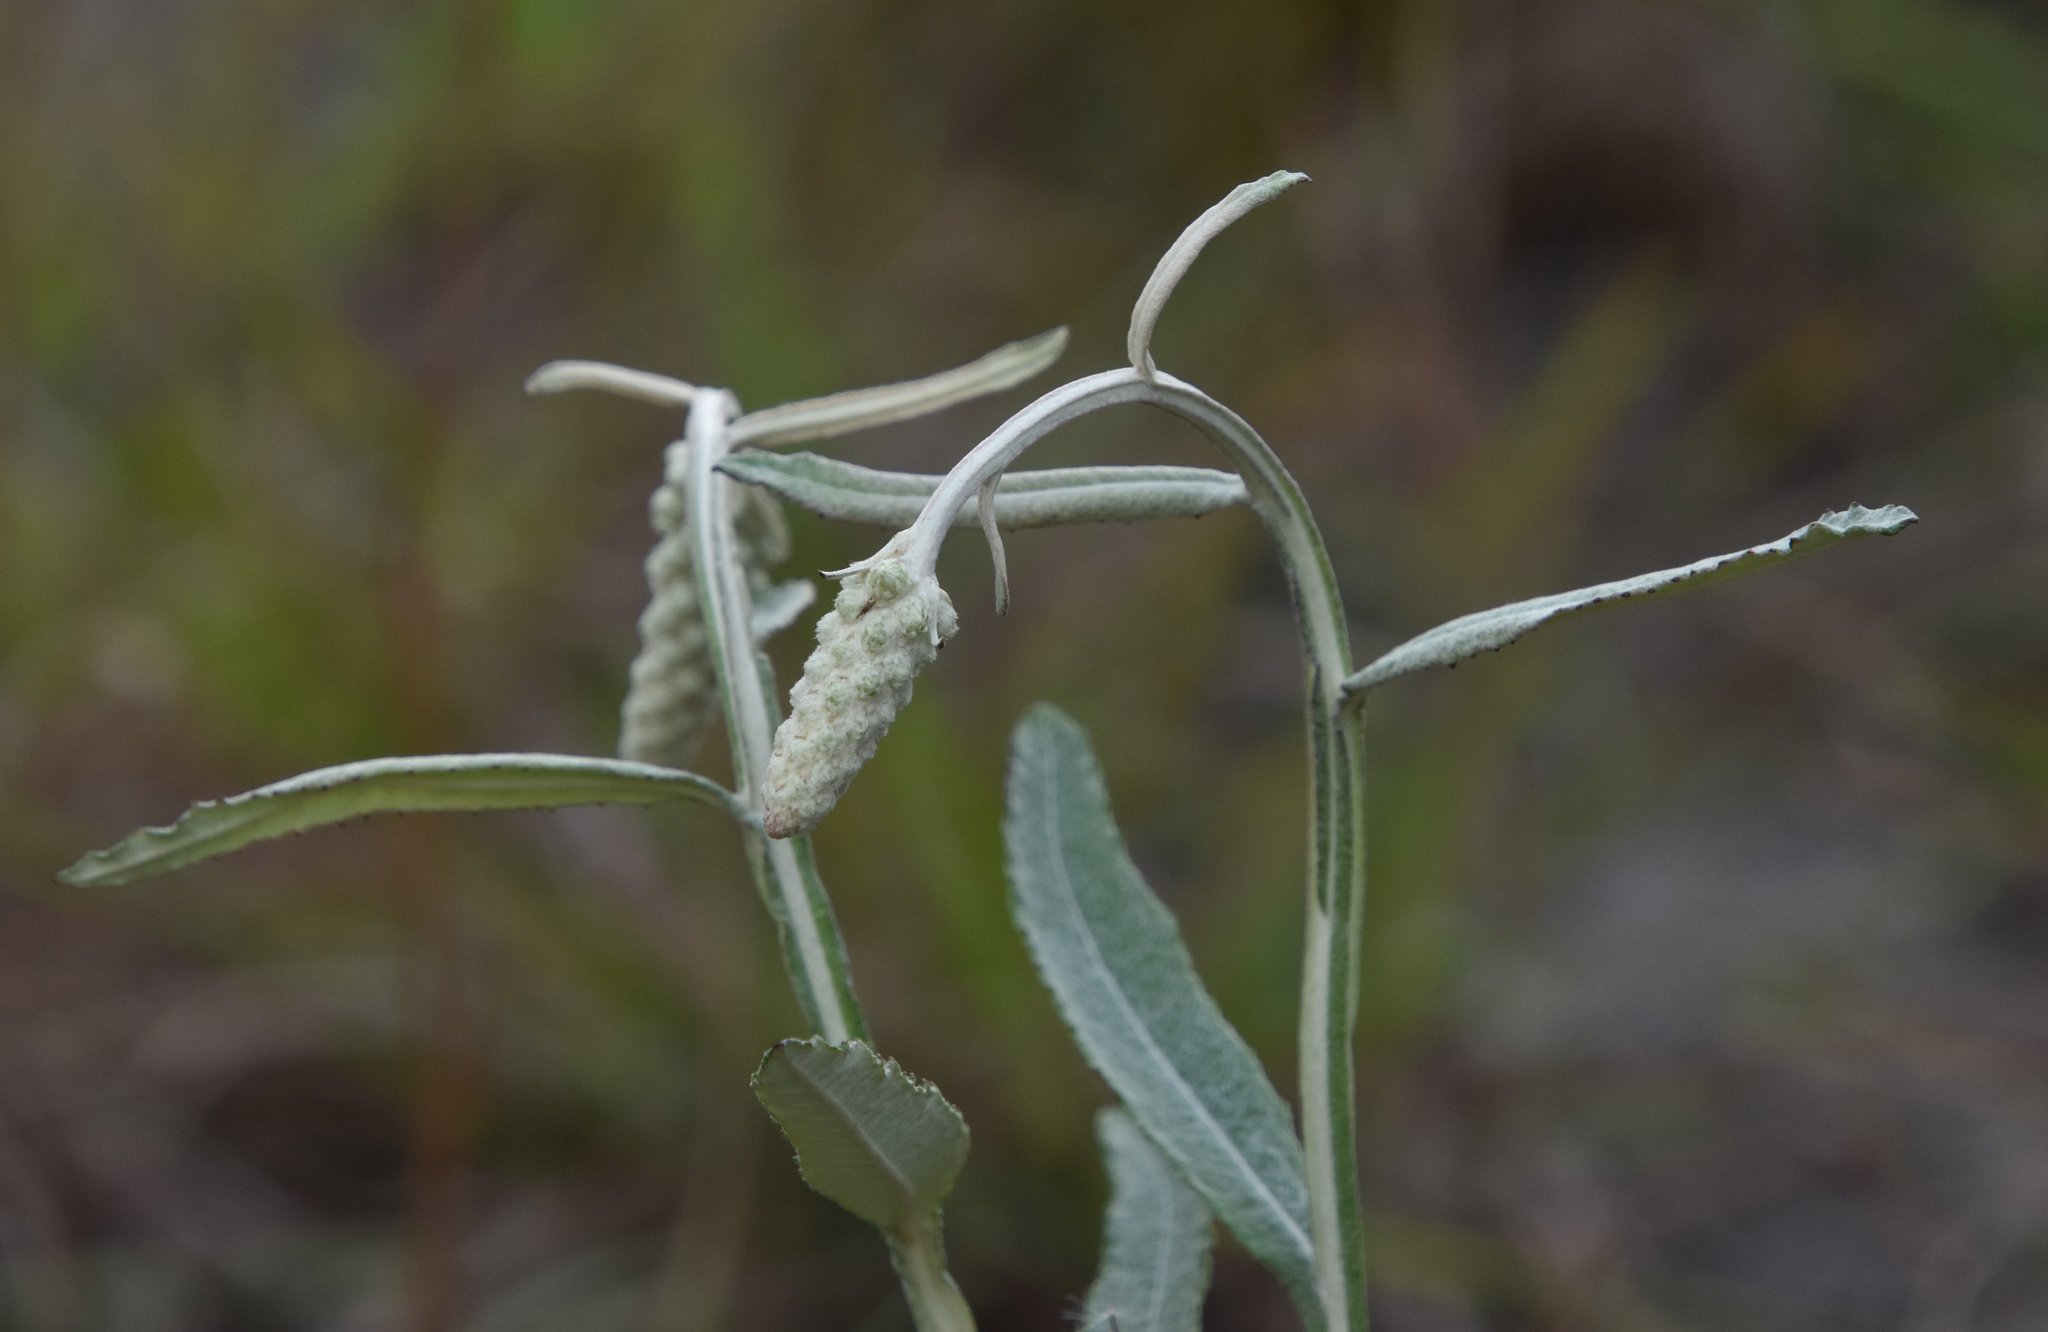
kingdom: Plantae
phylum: Tracheophyta
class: Magnoliopsida
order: Asterales
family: Asteraceae
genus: Pterocaulon
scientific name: Pterocaulon pycnostachyum
